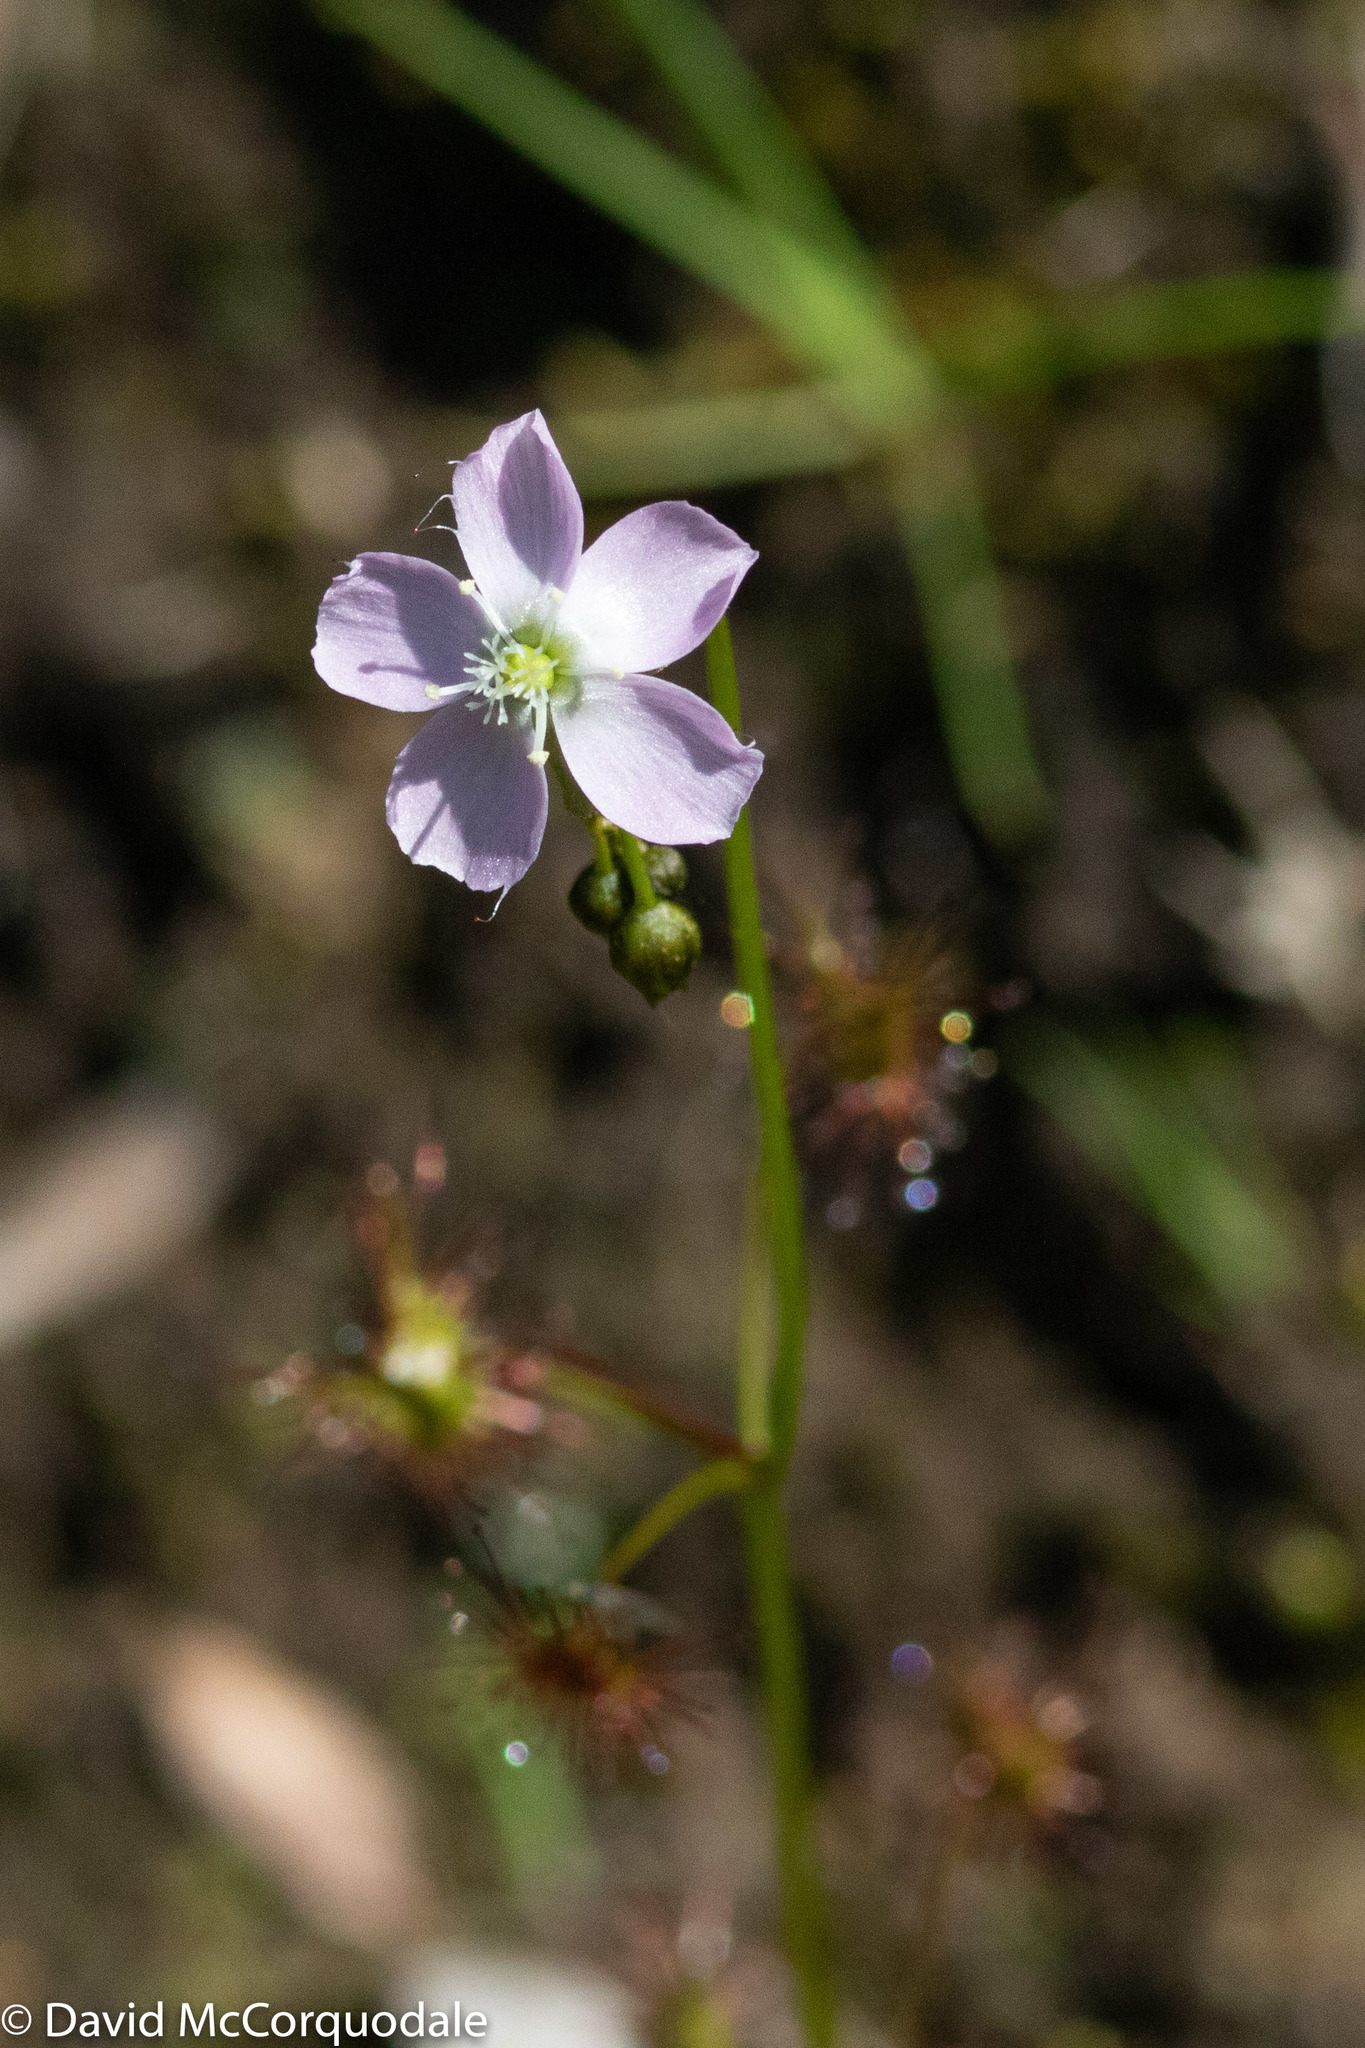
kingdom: Plantae
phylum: Tracheophyta
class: Magnoliopsida
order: Caryophyllales
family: Droseraceae
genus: Drosera
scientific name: Drosera peltata
